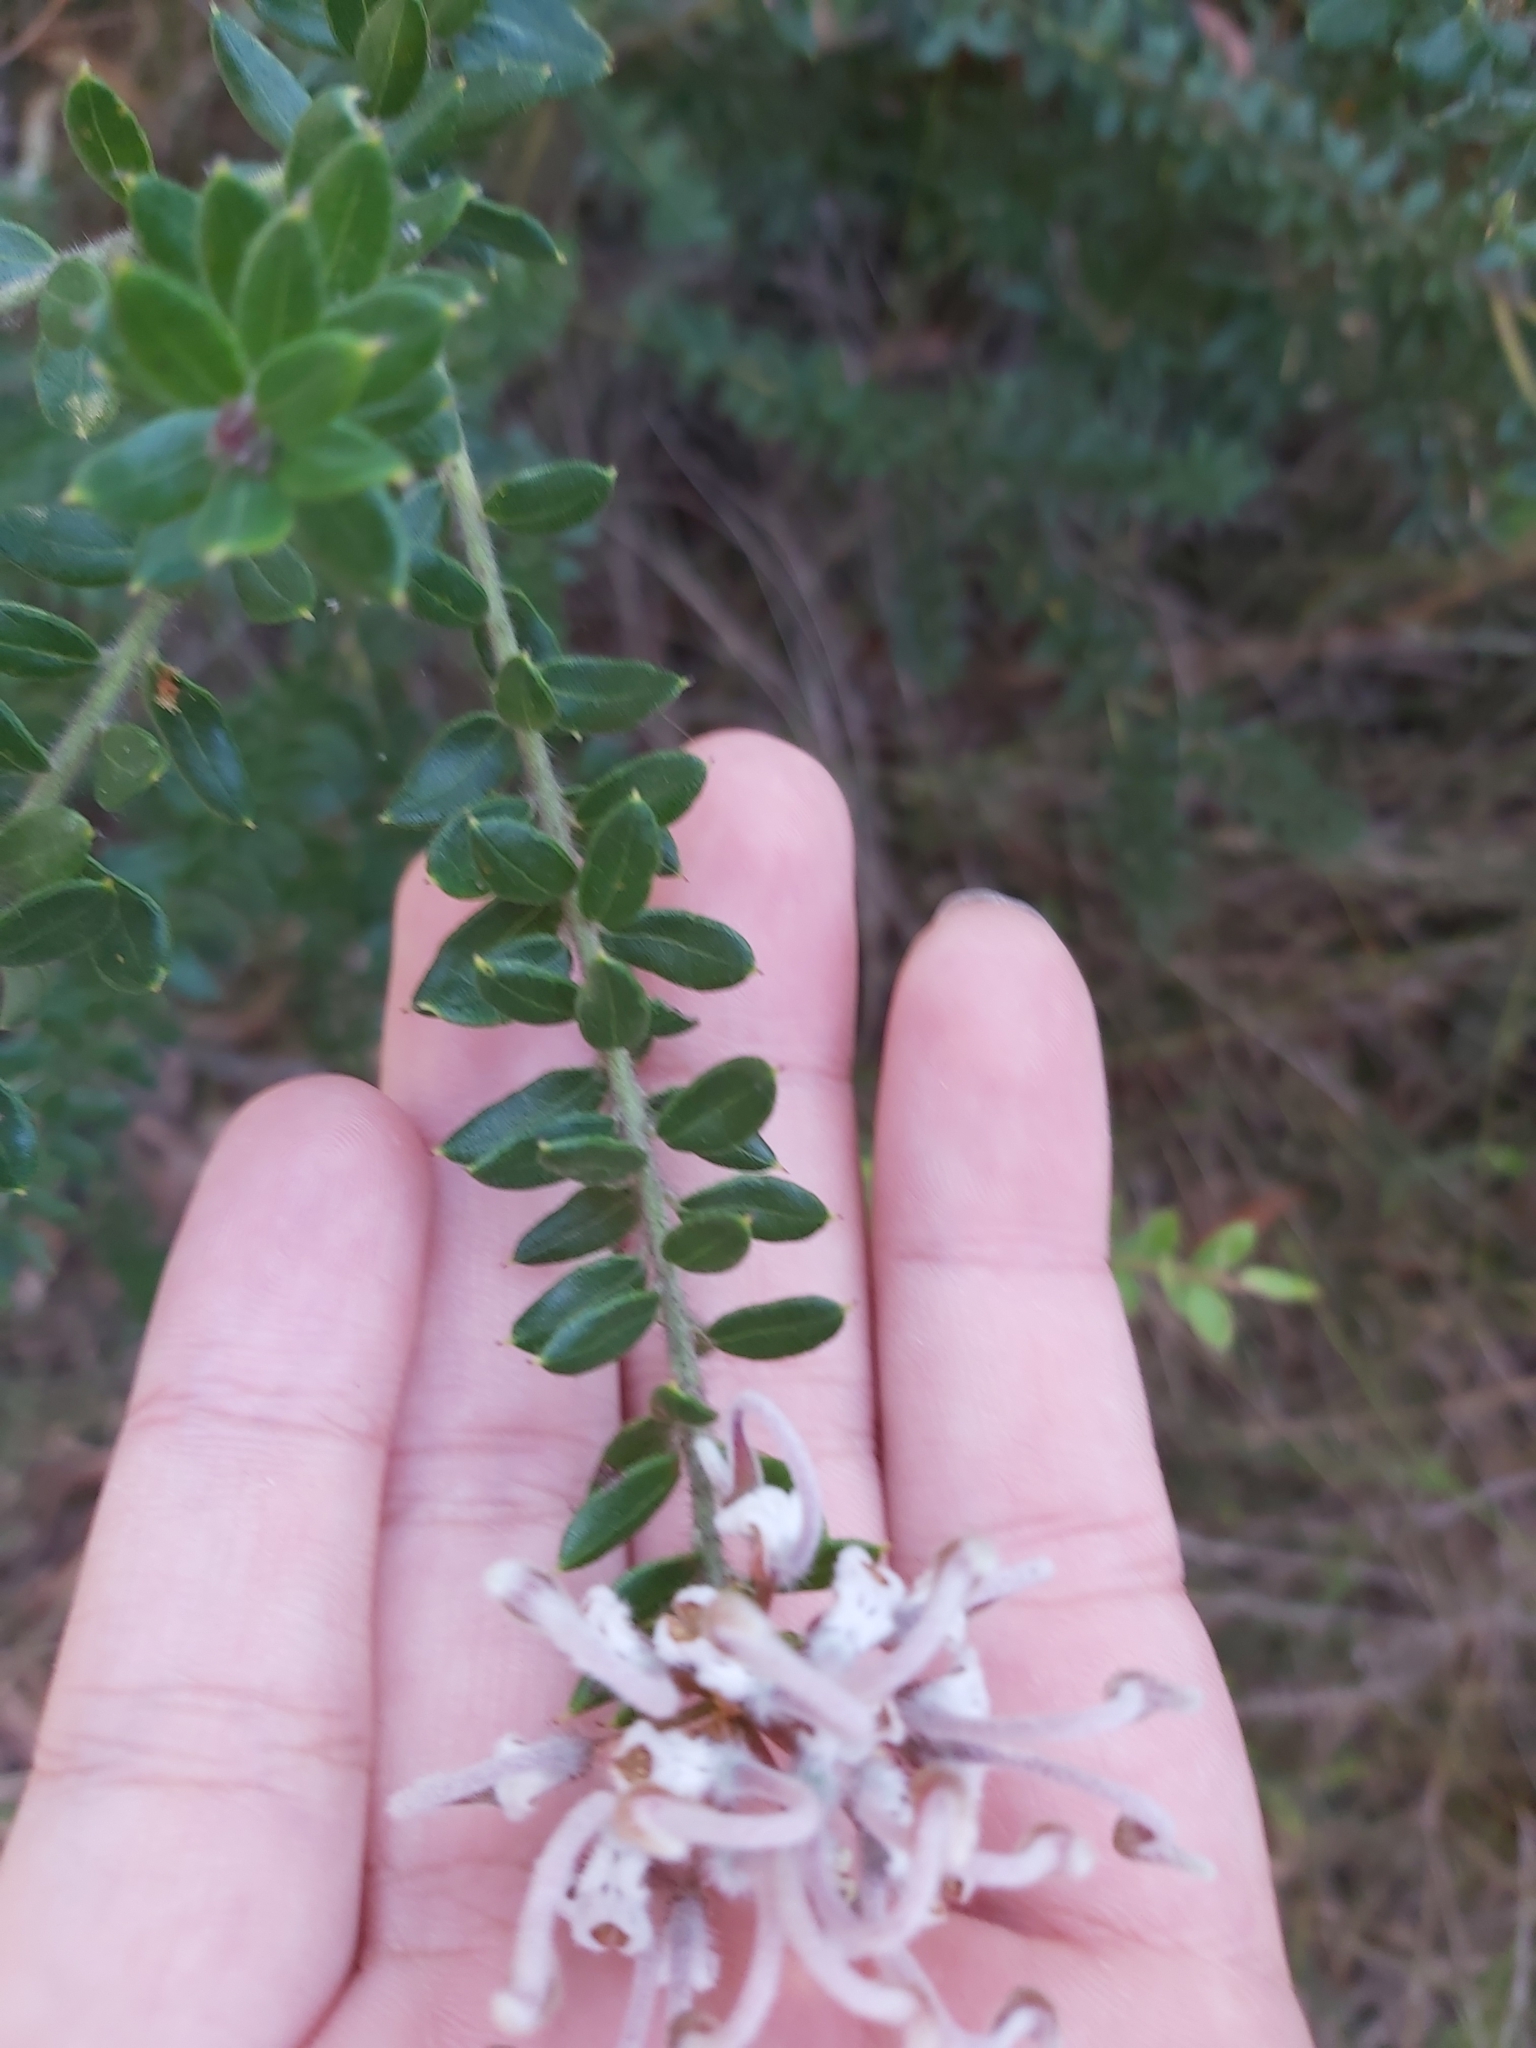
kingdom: Plantae
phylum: Tracheophyta
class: Magnoliopsida
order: Proteales
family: Proteaceae
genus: Grevillea
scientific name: Grevillea buxifolia
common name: Grey spiderflower
